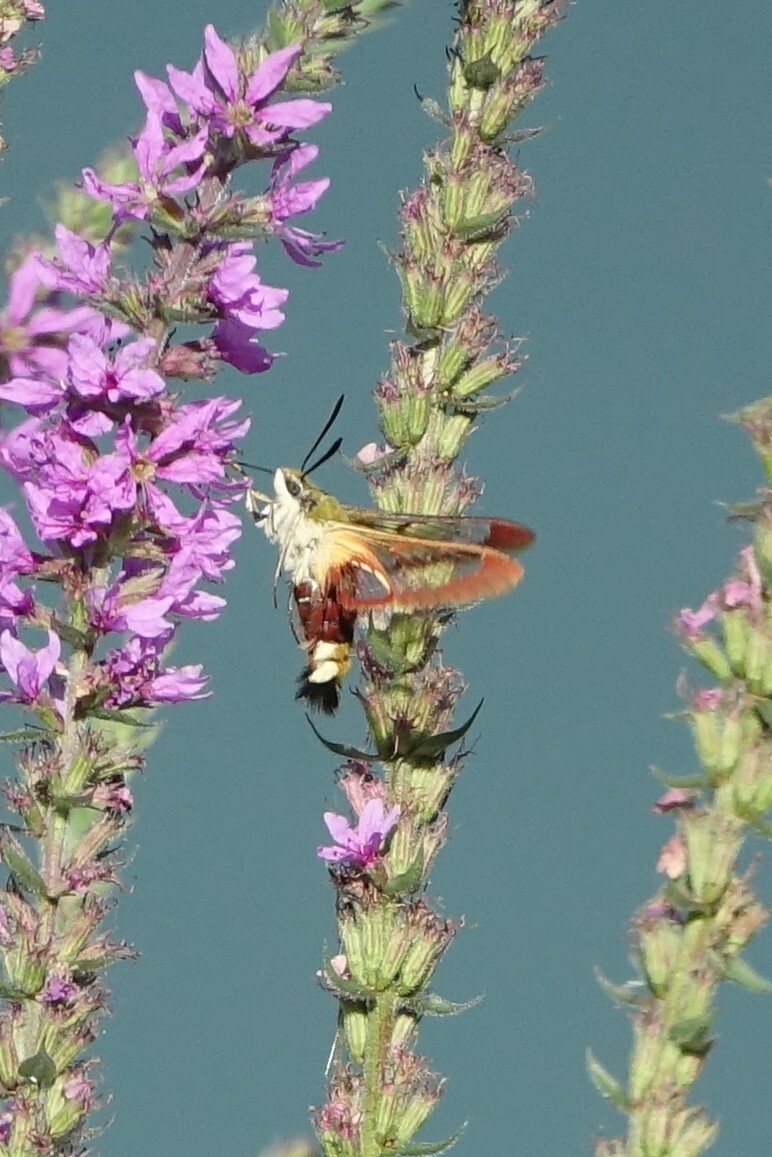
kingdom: Animalia
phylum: Arthropoda
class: Insecta
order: Lepidoptera
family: Sphingidae
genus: Hemaris
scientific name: Hemaris fuciformis
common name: Broad-bordered bee hawk-moth
